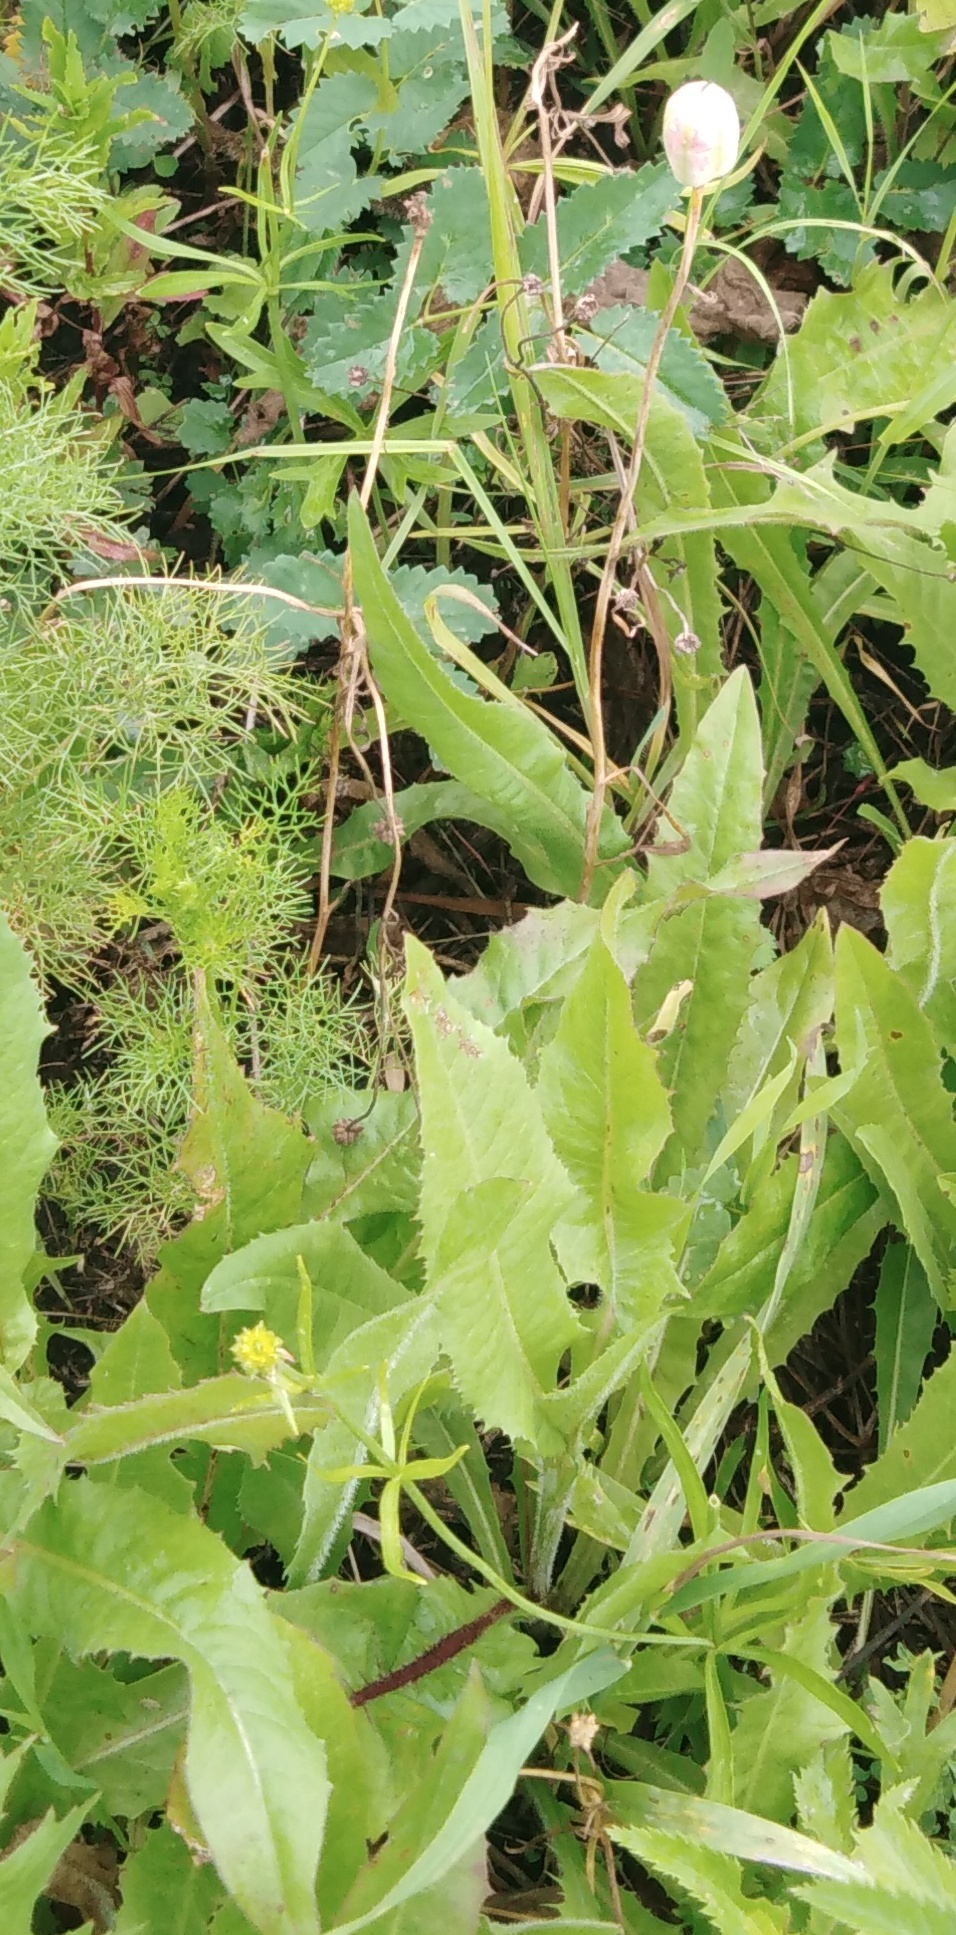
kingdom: Plantae
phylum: Tracheophyta
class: Liliopsida
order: Liliales
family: Liliaceae
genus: Fritillaria
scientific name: Fritillaria meleagroides
